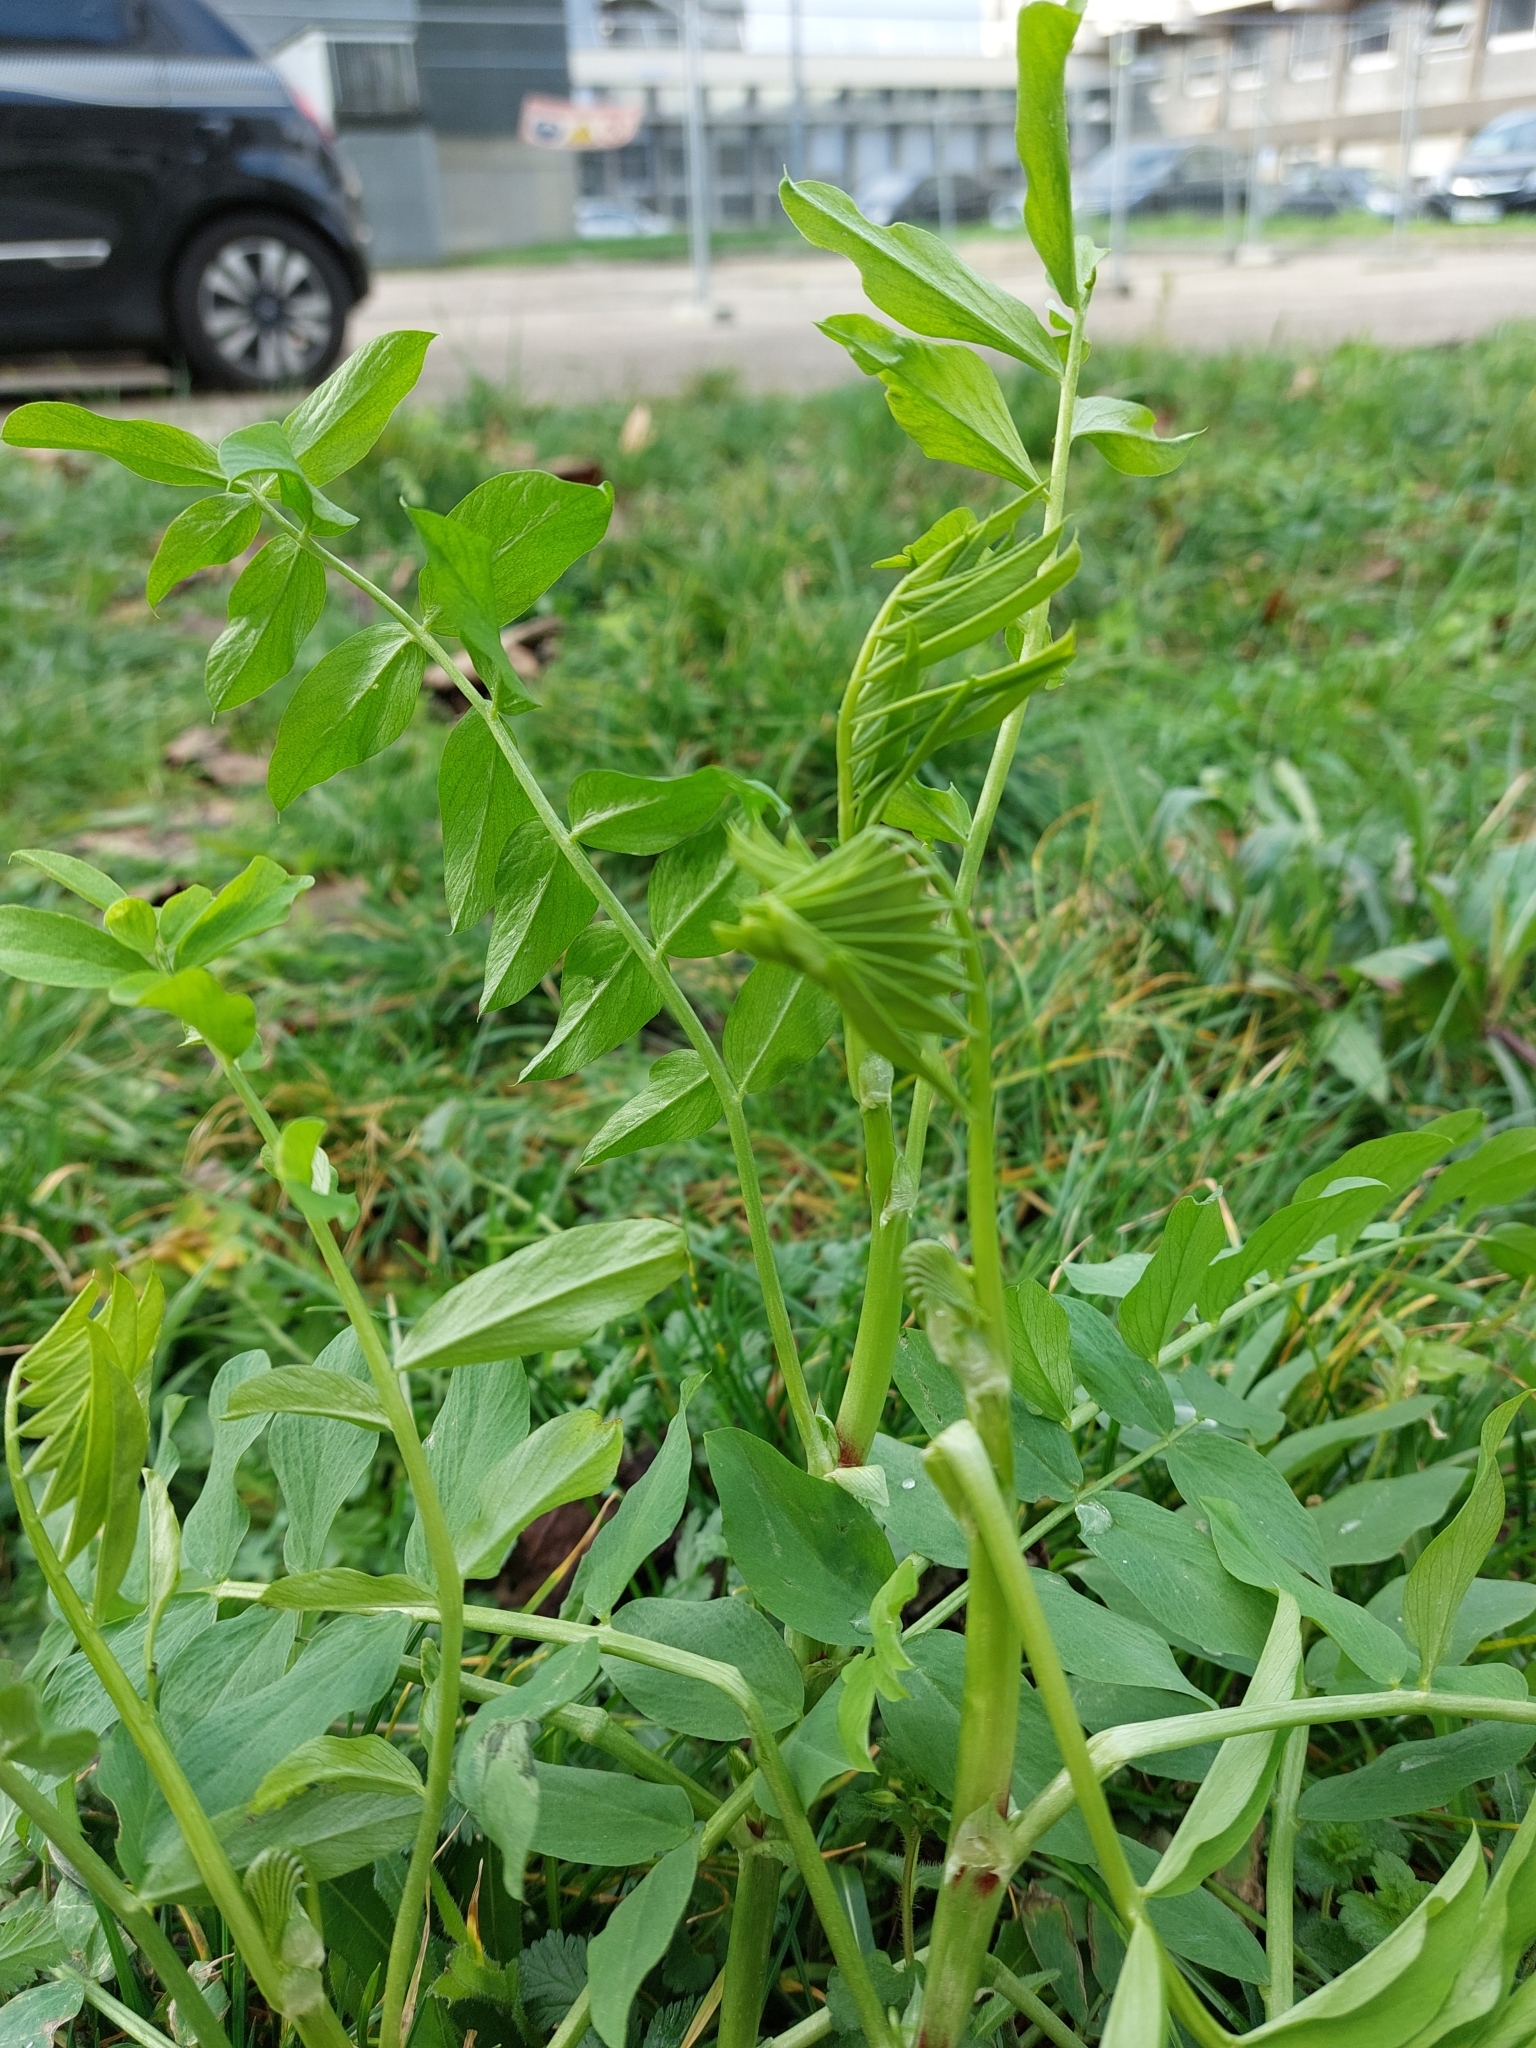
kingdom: Plantae
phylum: Tracheophyta
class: Magnoliopsida
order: Fabales
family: Fabaceae
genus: Galega
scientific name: Galega officinalis
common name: Goat's-rue
